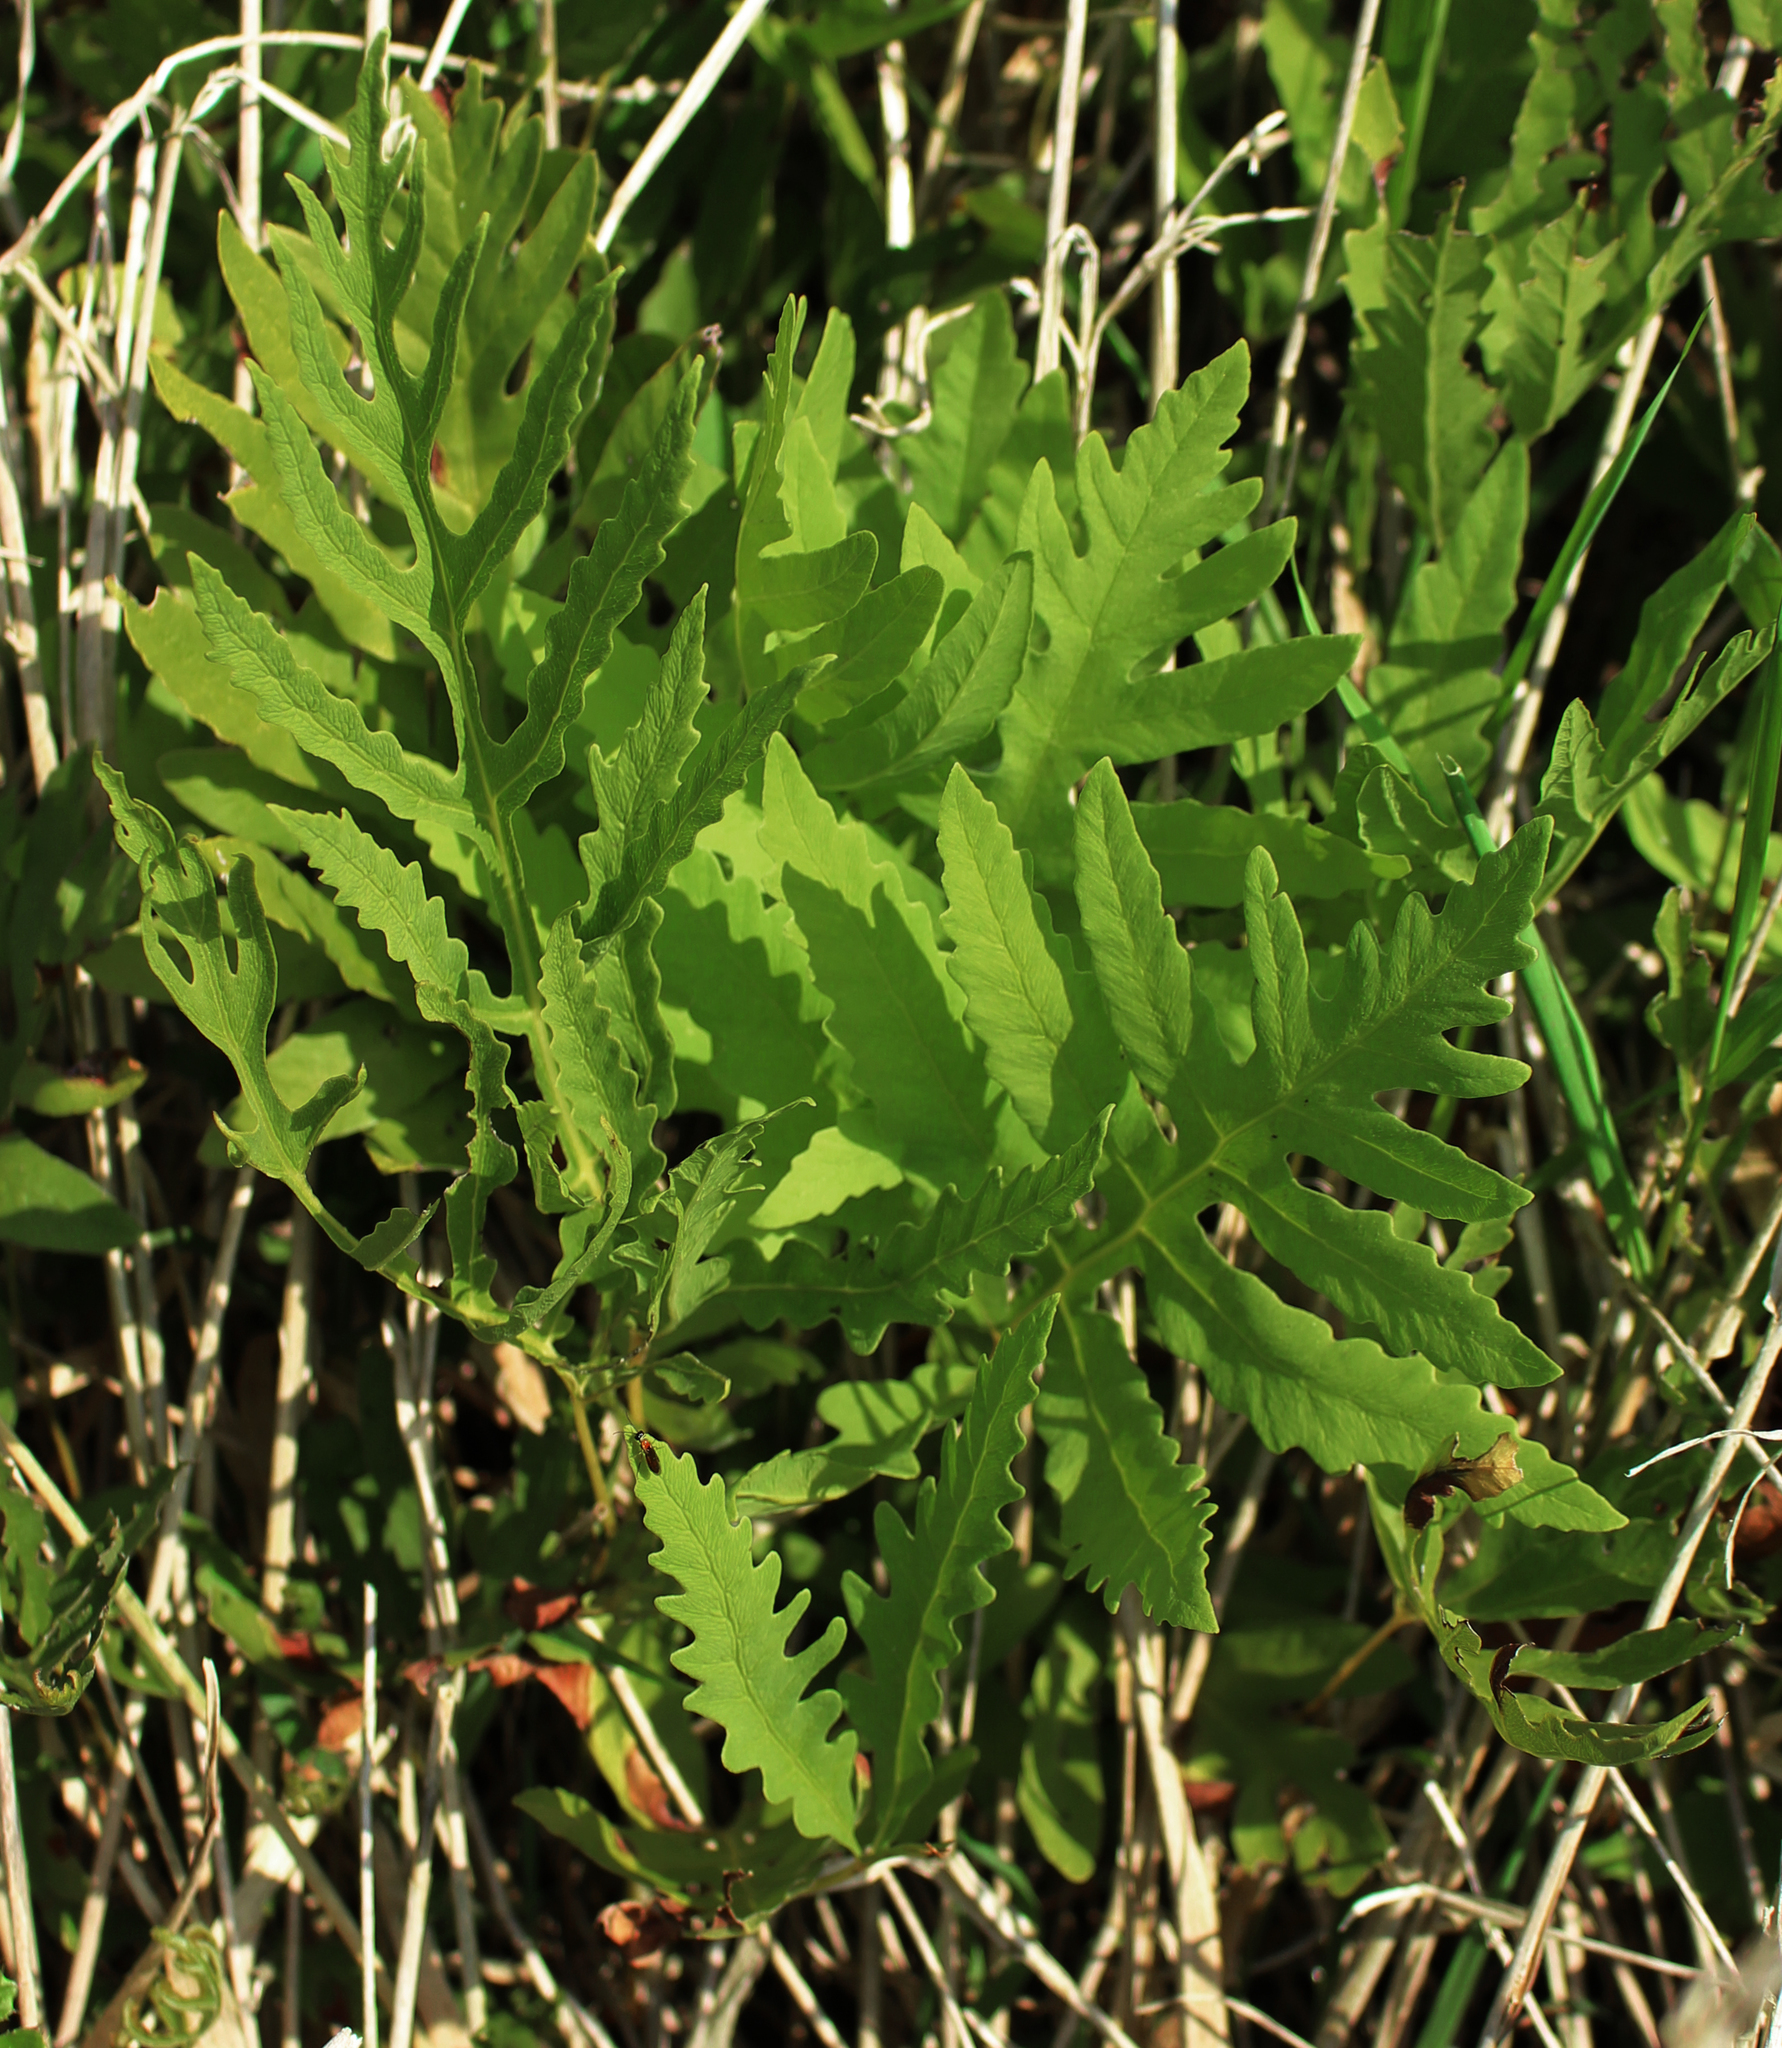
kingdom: Plantae
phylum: Tracheophyta
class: Polypodiopsida
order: Polypodiales
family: Onocleaceae
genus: Onoclea
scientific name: Onoclea sensibilis
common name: Sensitive fern
